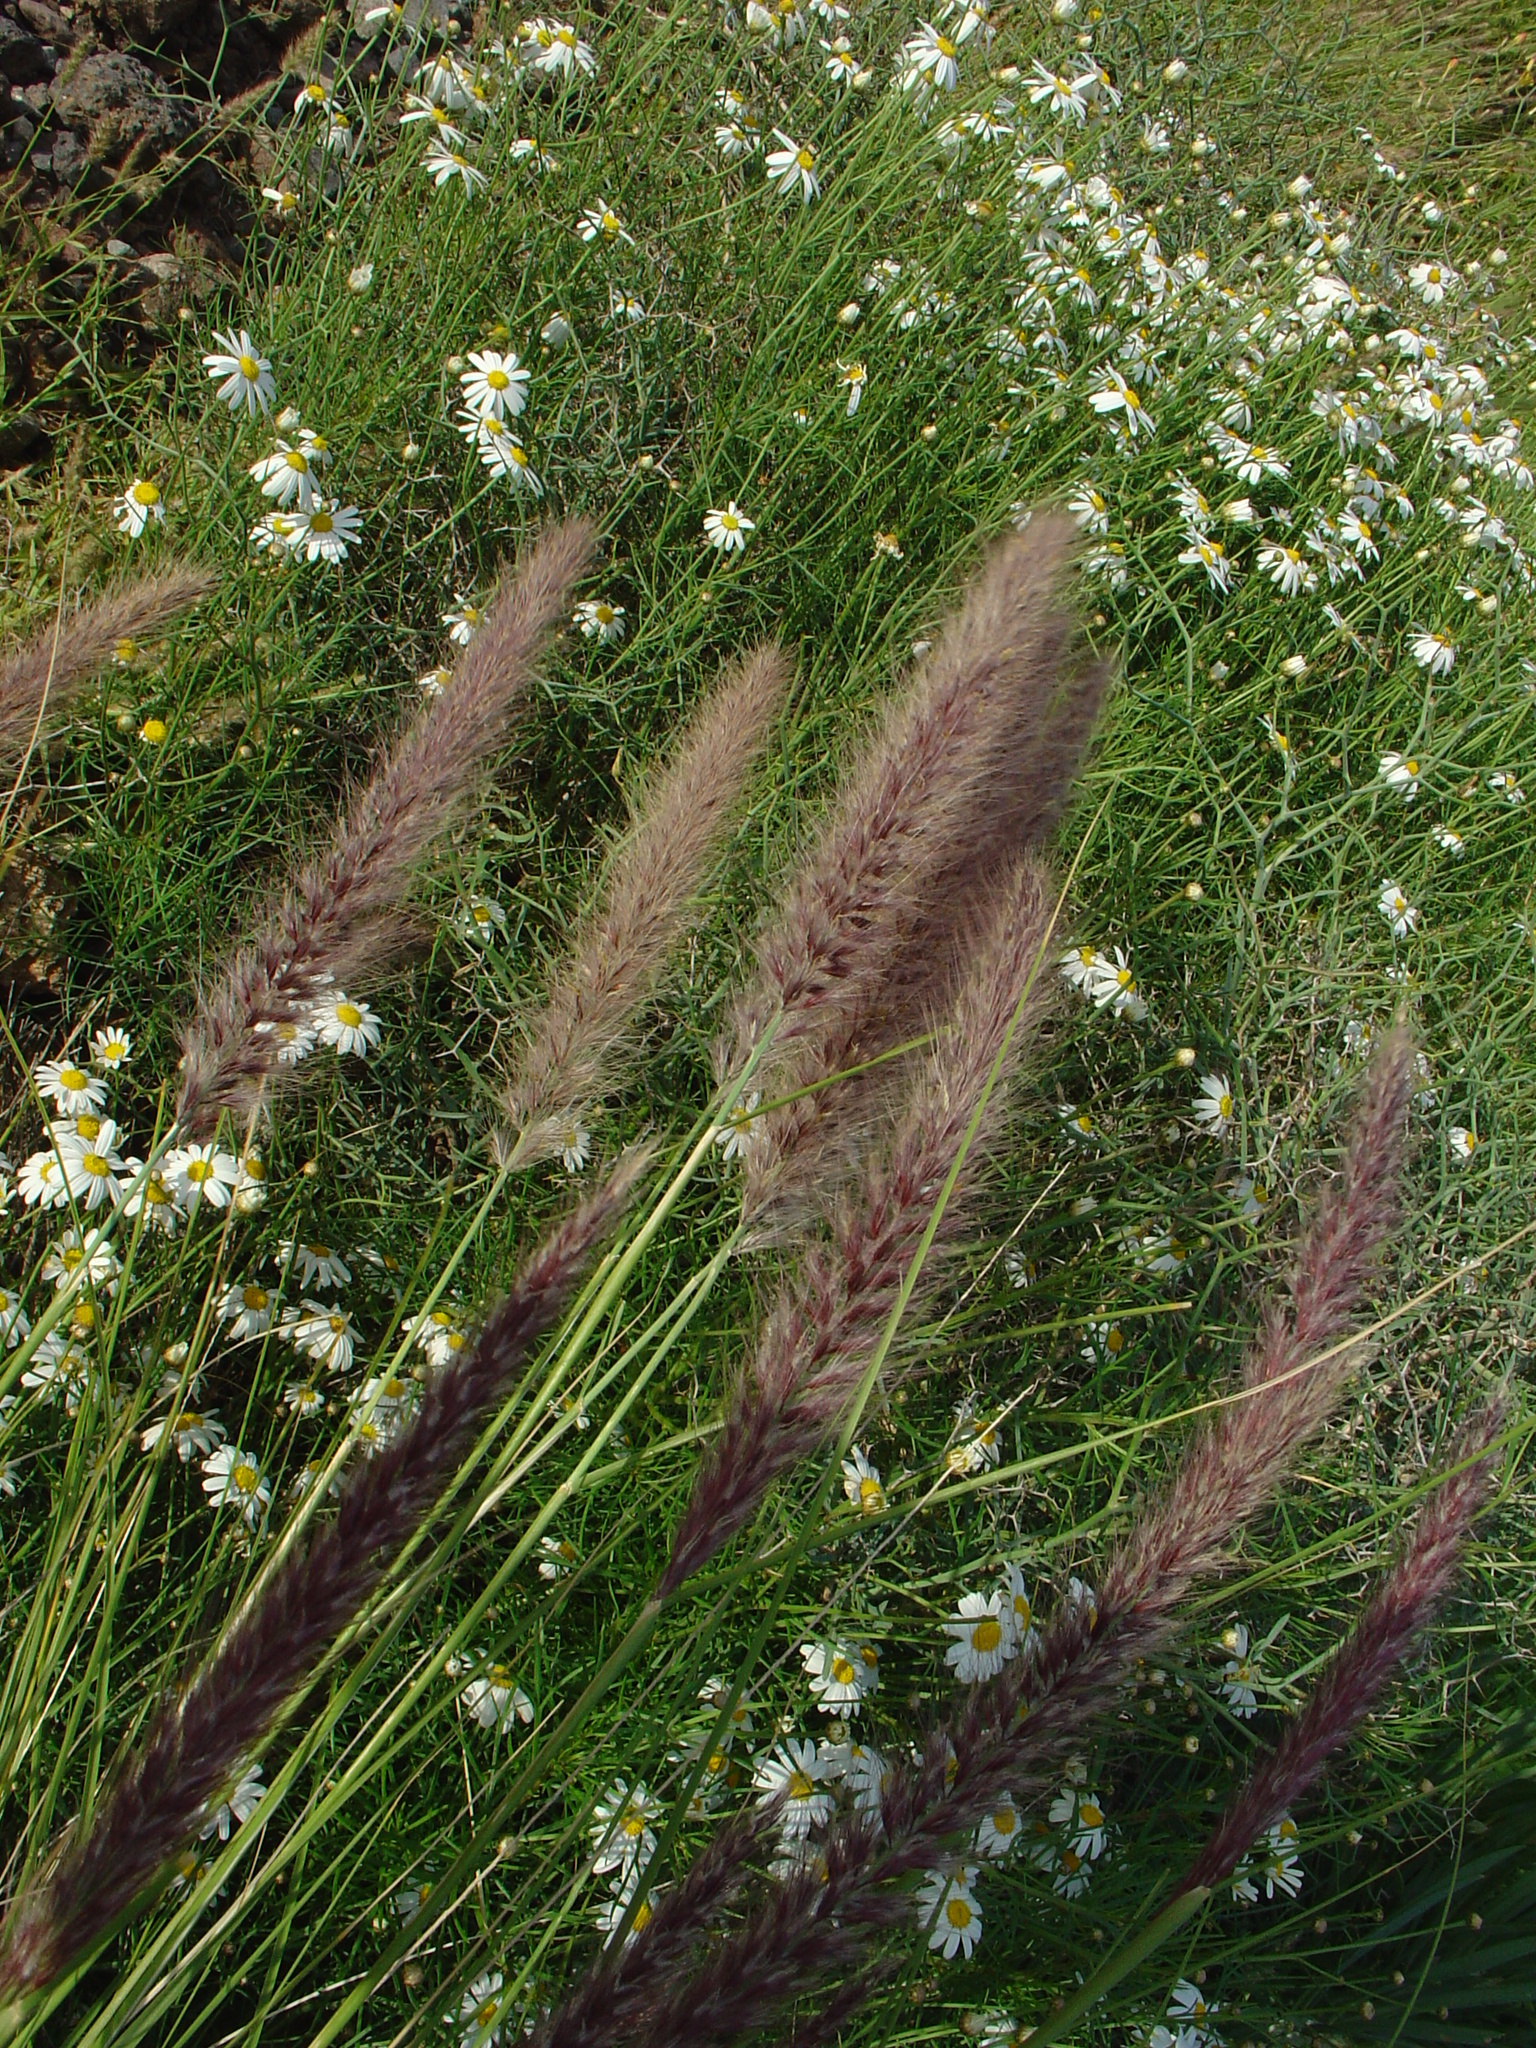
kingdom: Plantae
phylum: Tracheophyta
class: Liliopsida
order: Poales
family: Poaceae
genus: Cenchrus
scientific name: Cenchrus setaceus
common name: Crimson fountaingrass
